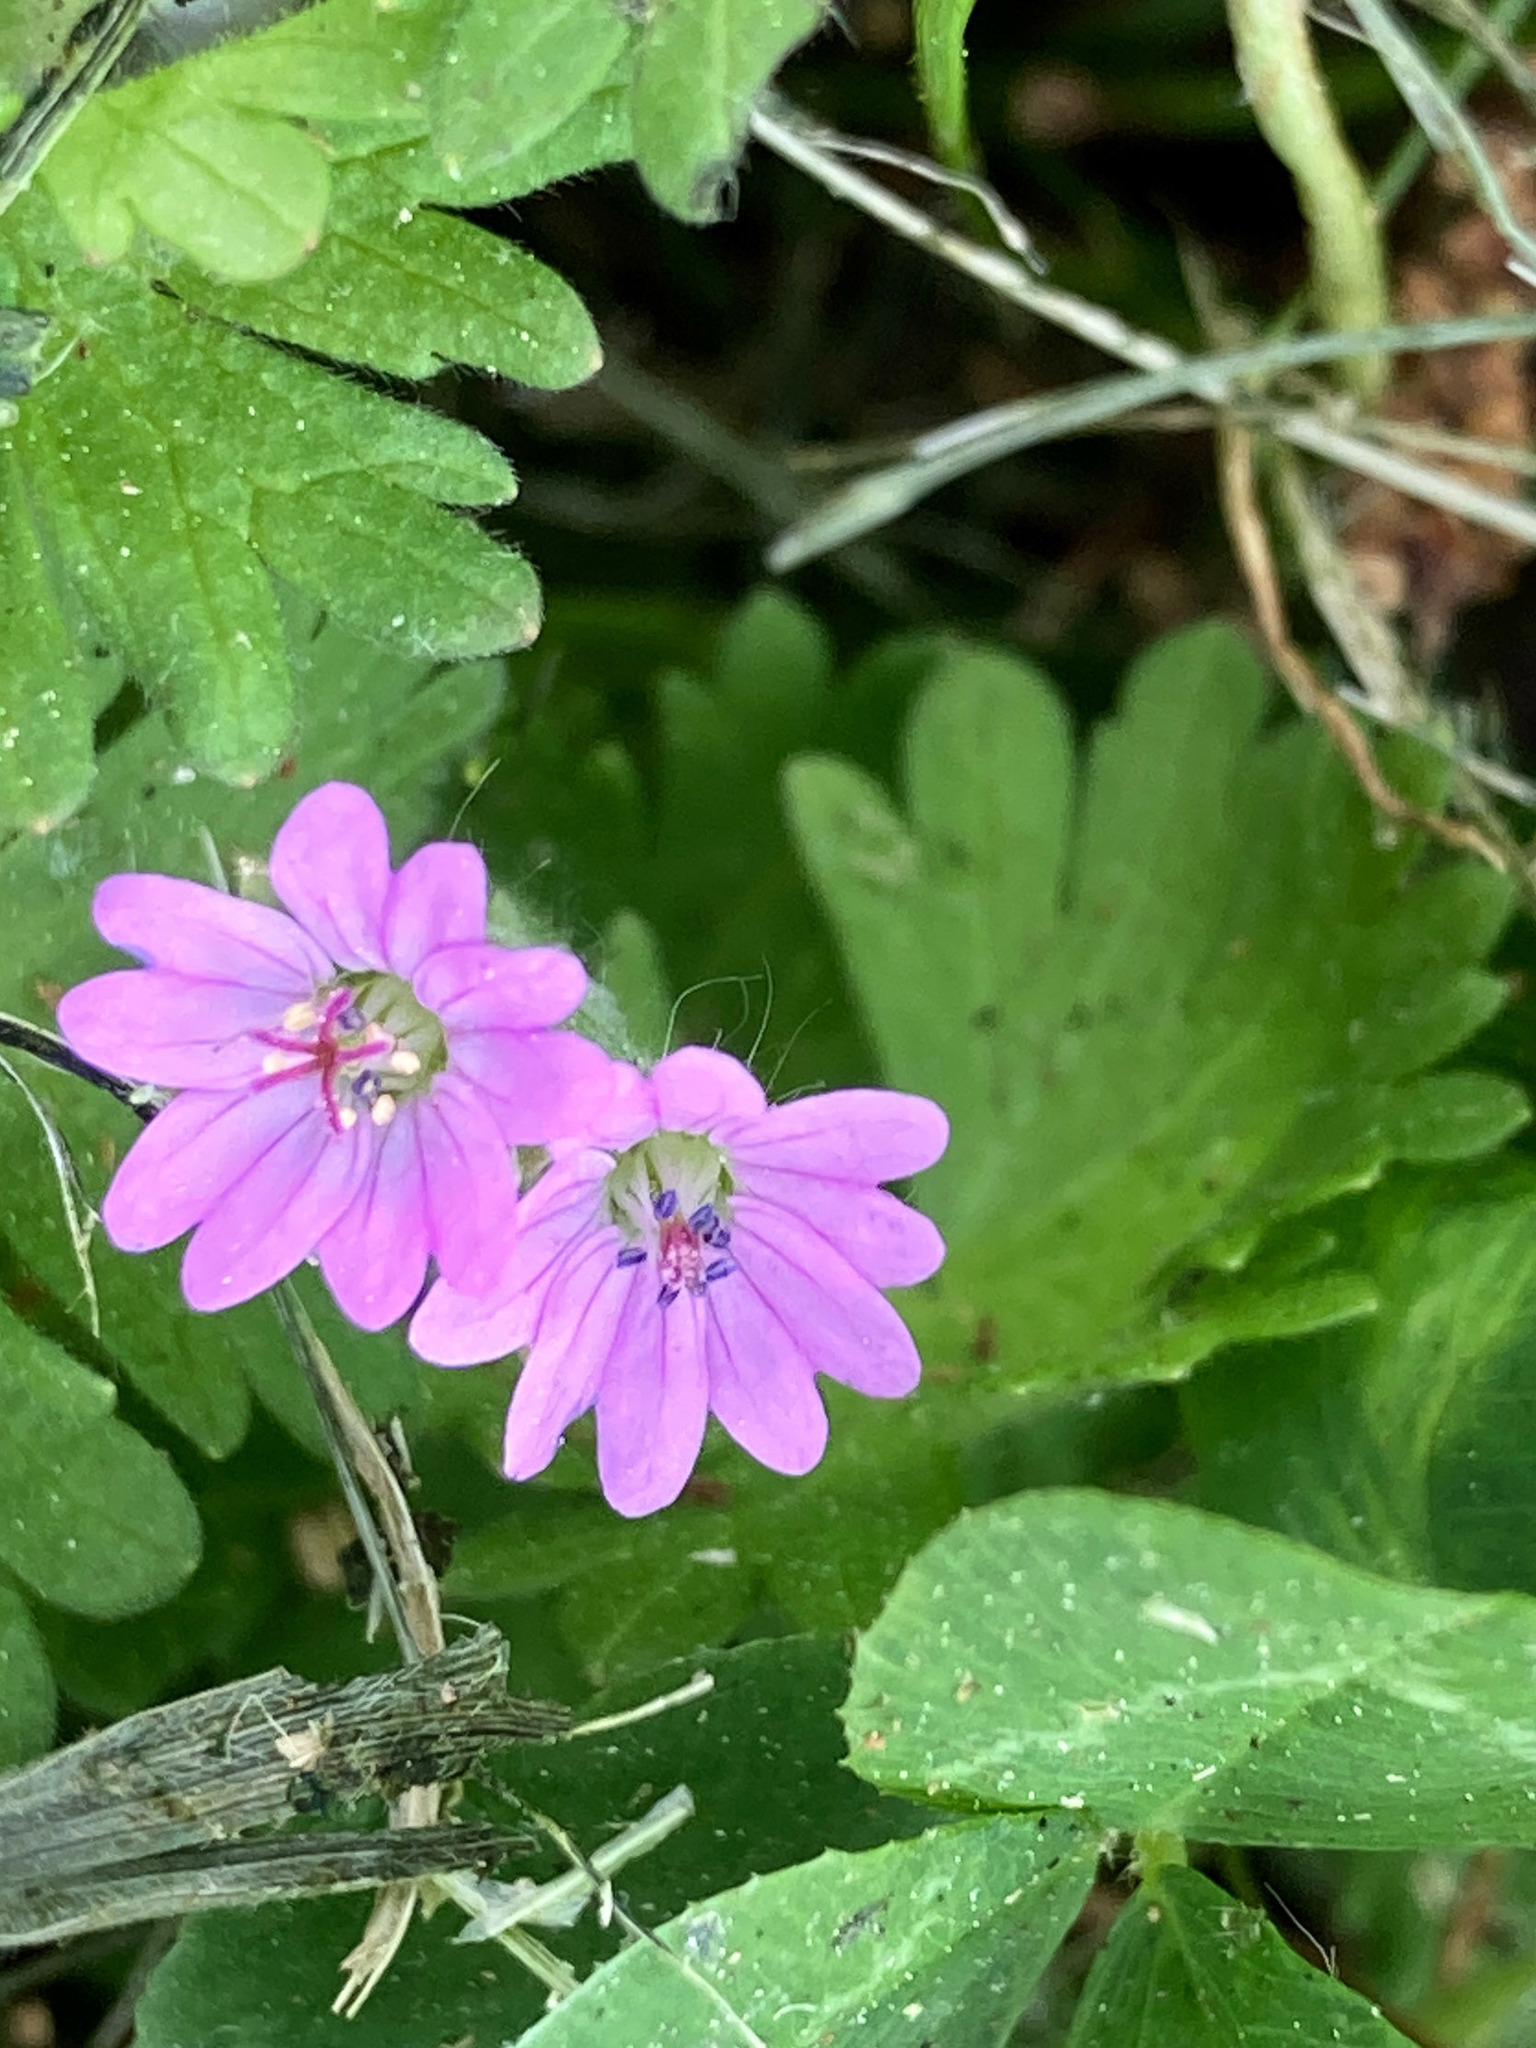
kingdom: Plantae
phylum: Tracheophyta
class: Magnoliopsida
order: Geraniales
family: Geraniaceae
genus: Geranium
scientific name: Geranium molle
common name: Dove's-foot crane's-bill
